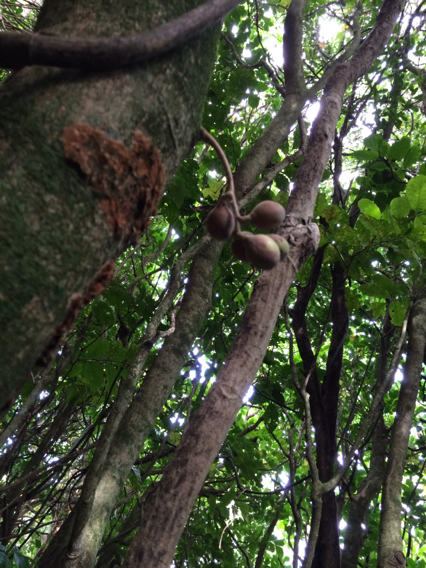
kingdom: Plantae
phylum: Tracheophyta
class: Magnoliopsida
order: Sapindales
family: Meliaceae
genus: Didymocheton
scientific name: Didymocheton spectabilis
